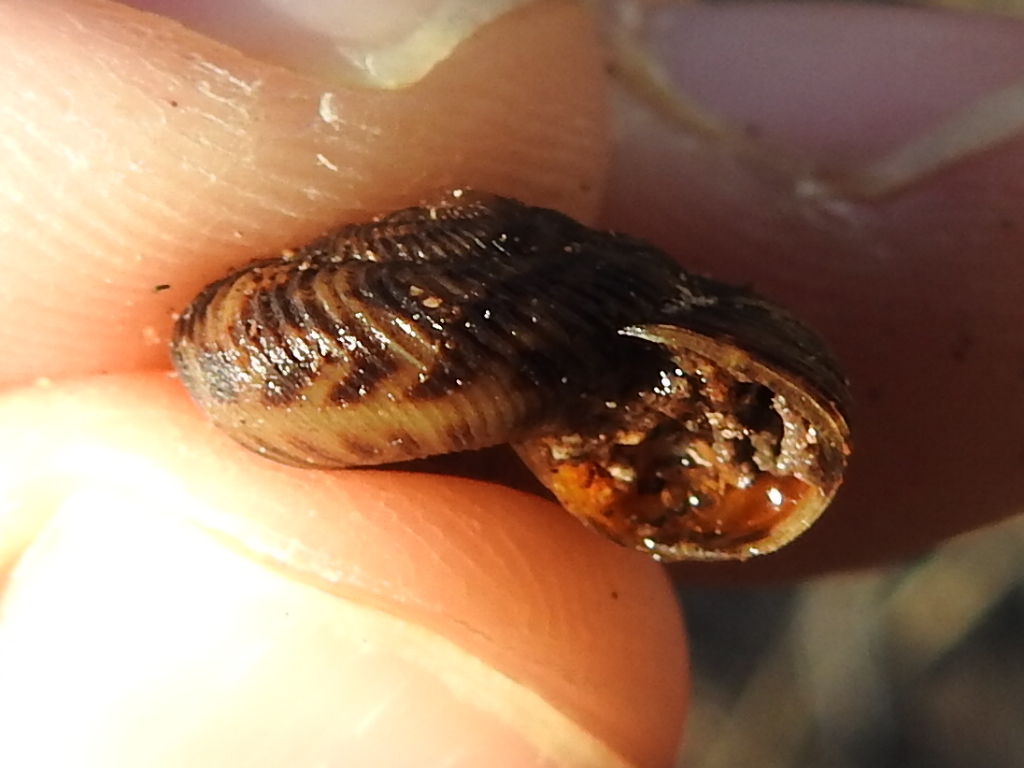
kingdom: Animalia
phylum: Mollusca
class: Gastropoda
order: Stylommatophora
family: Discidae
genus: Anguispira
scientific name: Anguispira strongylodes
